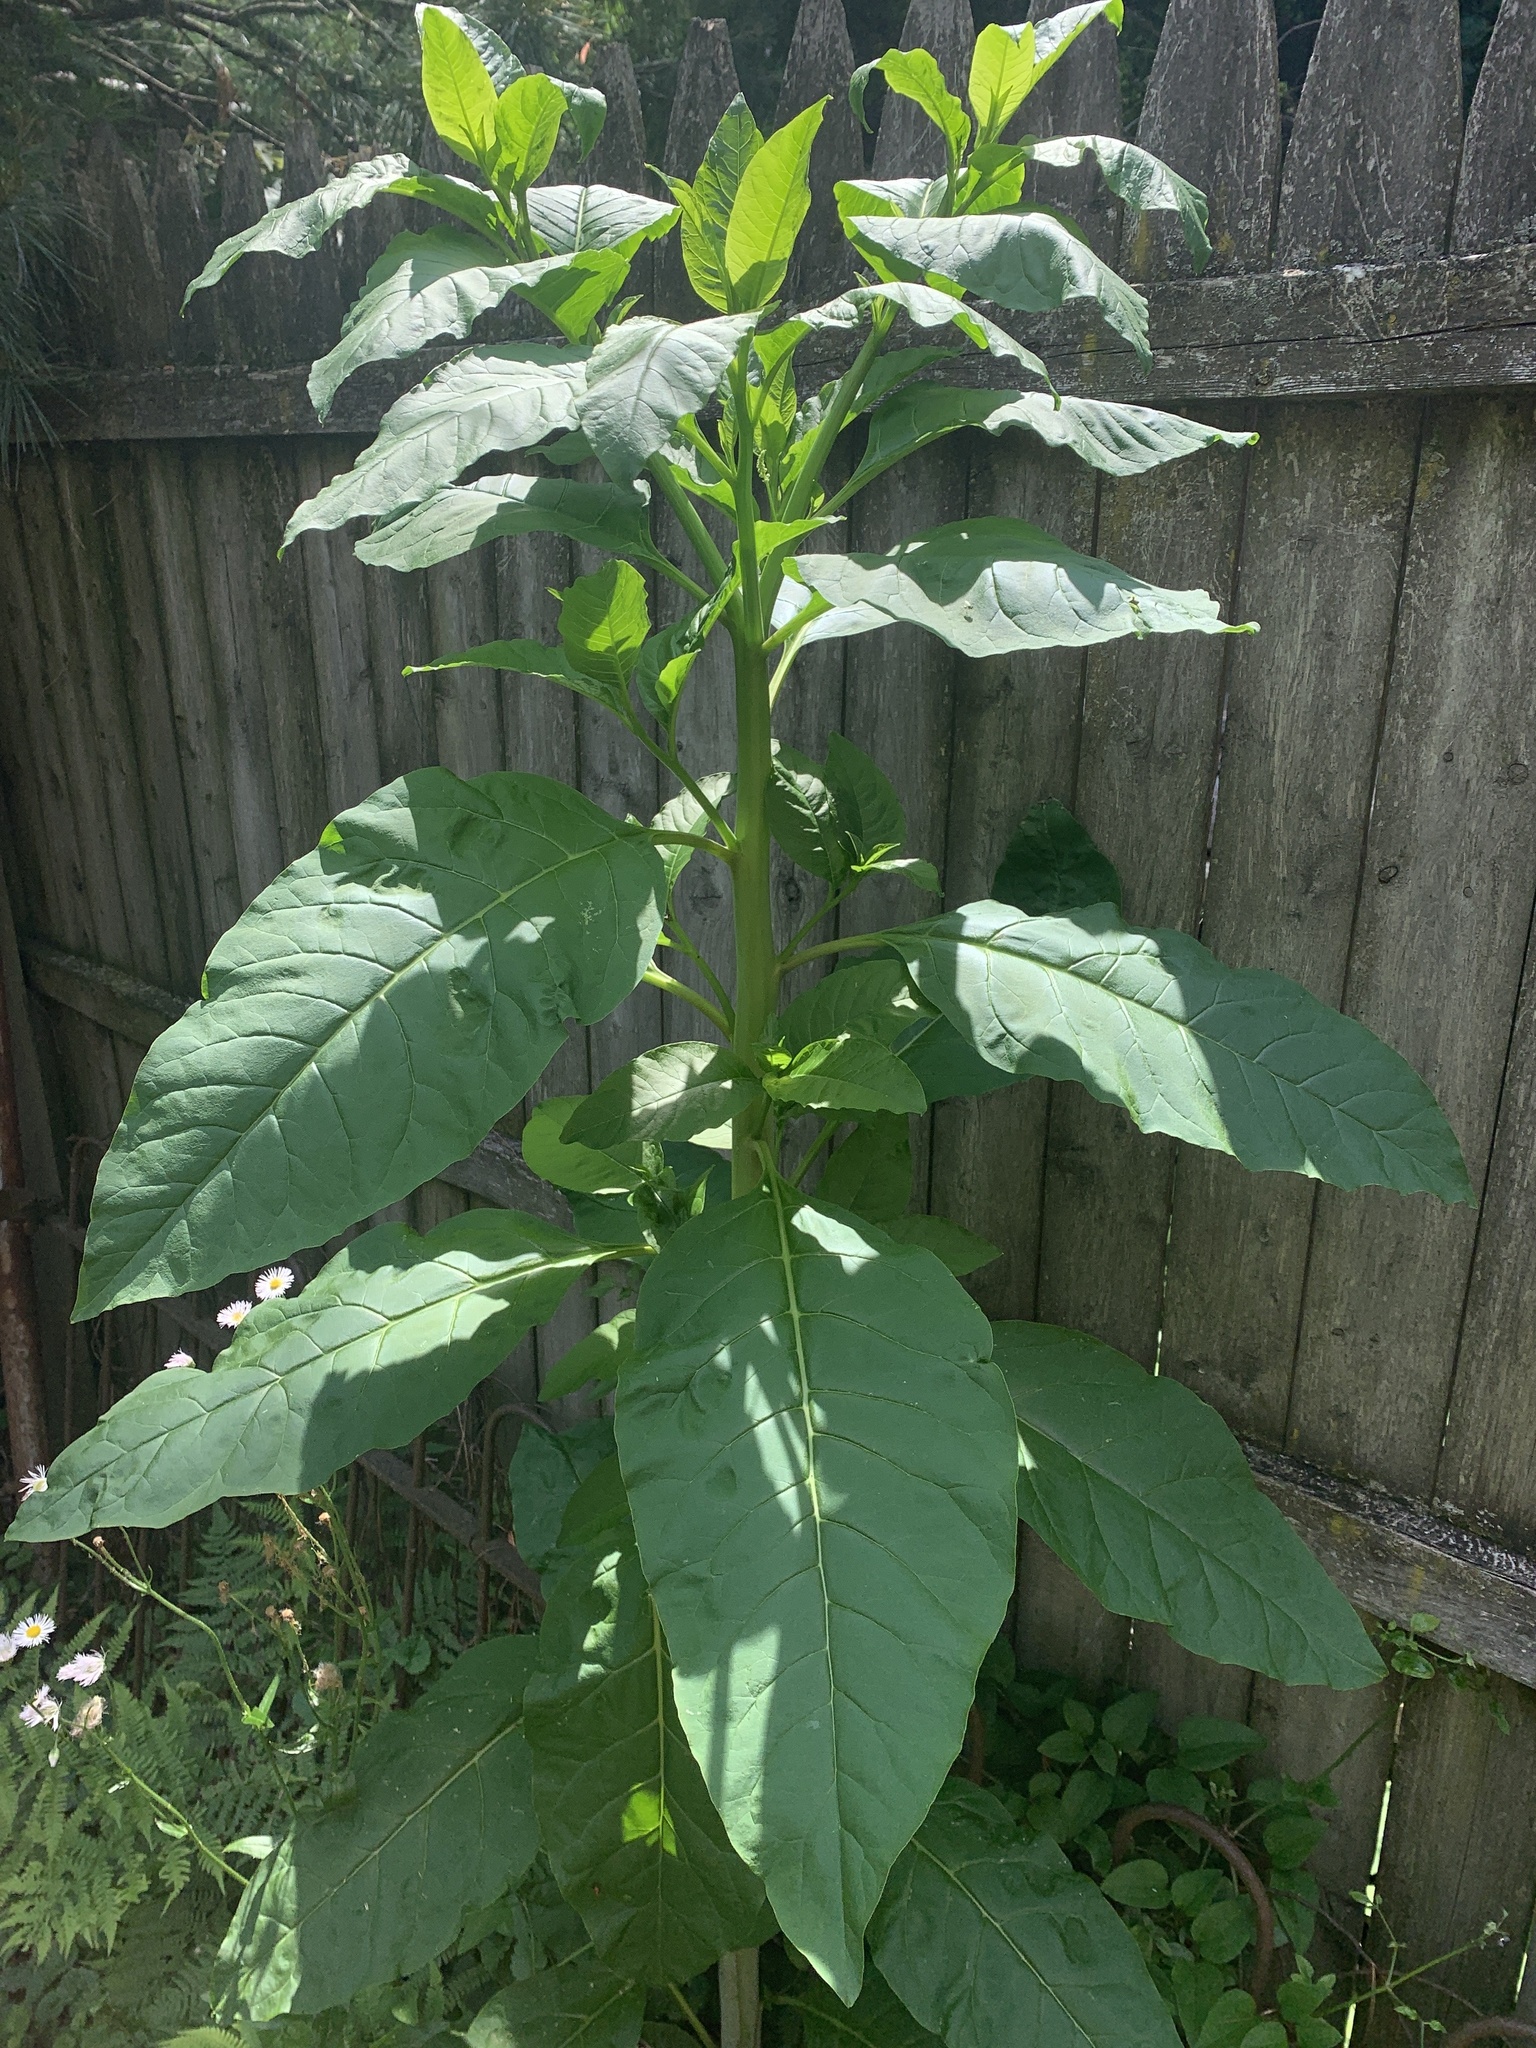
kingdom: Plantae
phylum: Tracheophyta
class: Magnoliopsida
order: Caryophyllales
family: Phytolaccaceae
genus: Phytolacca
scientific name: Phytolacca americana
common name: American pokeweed
